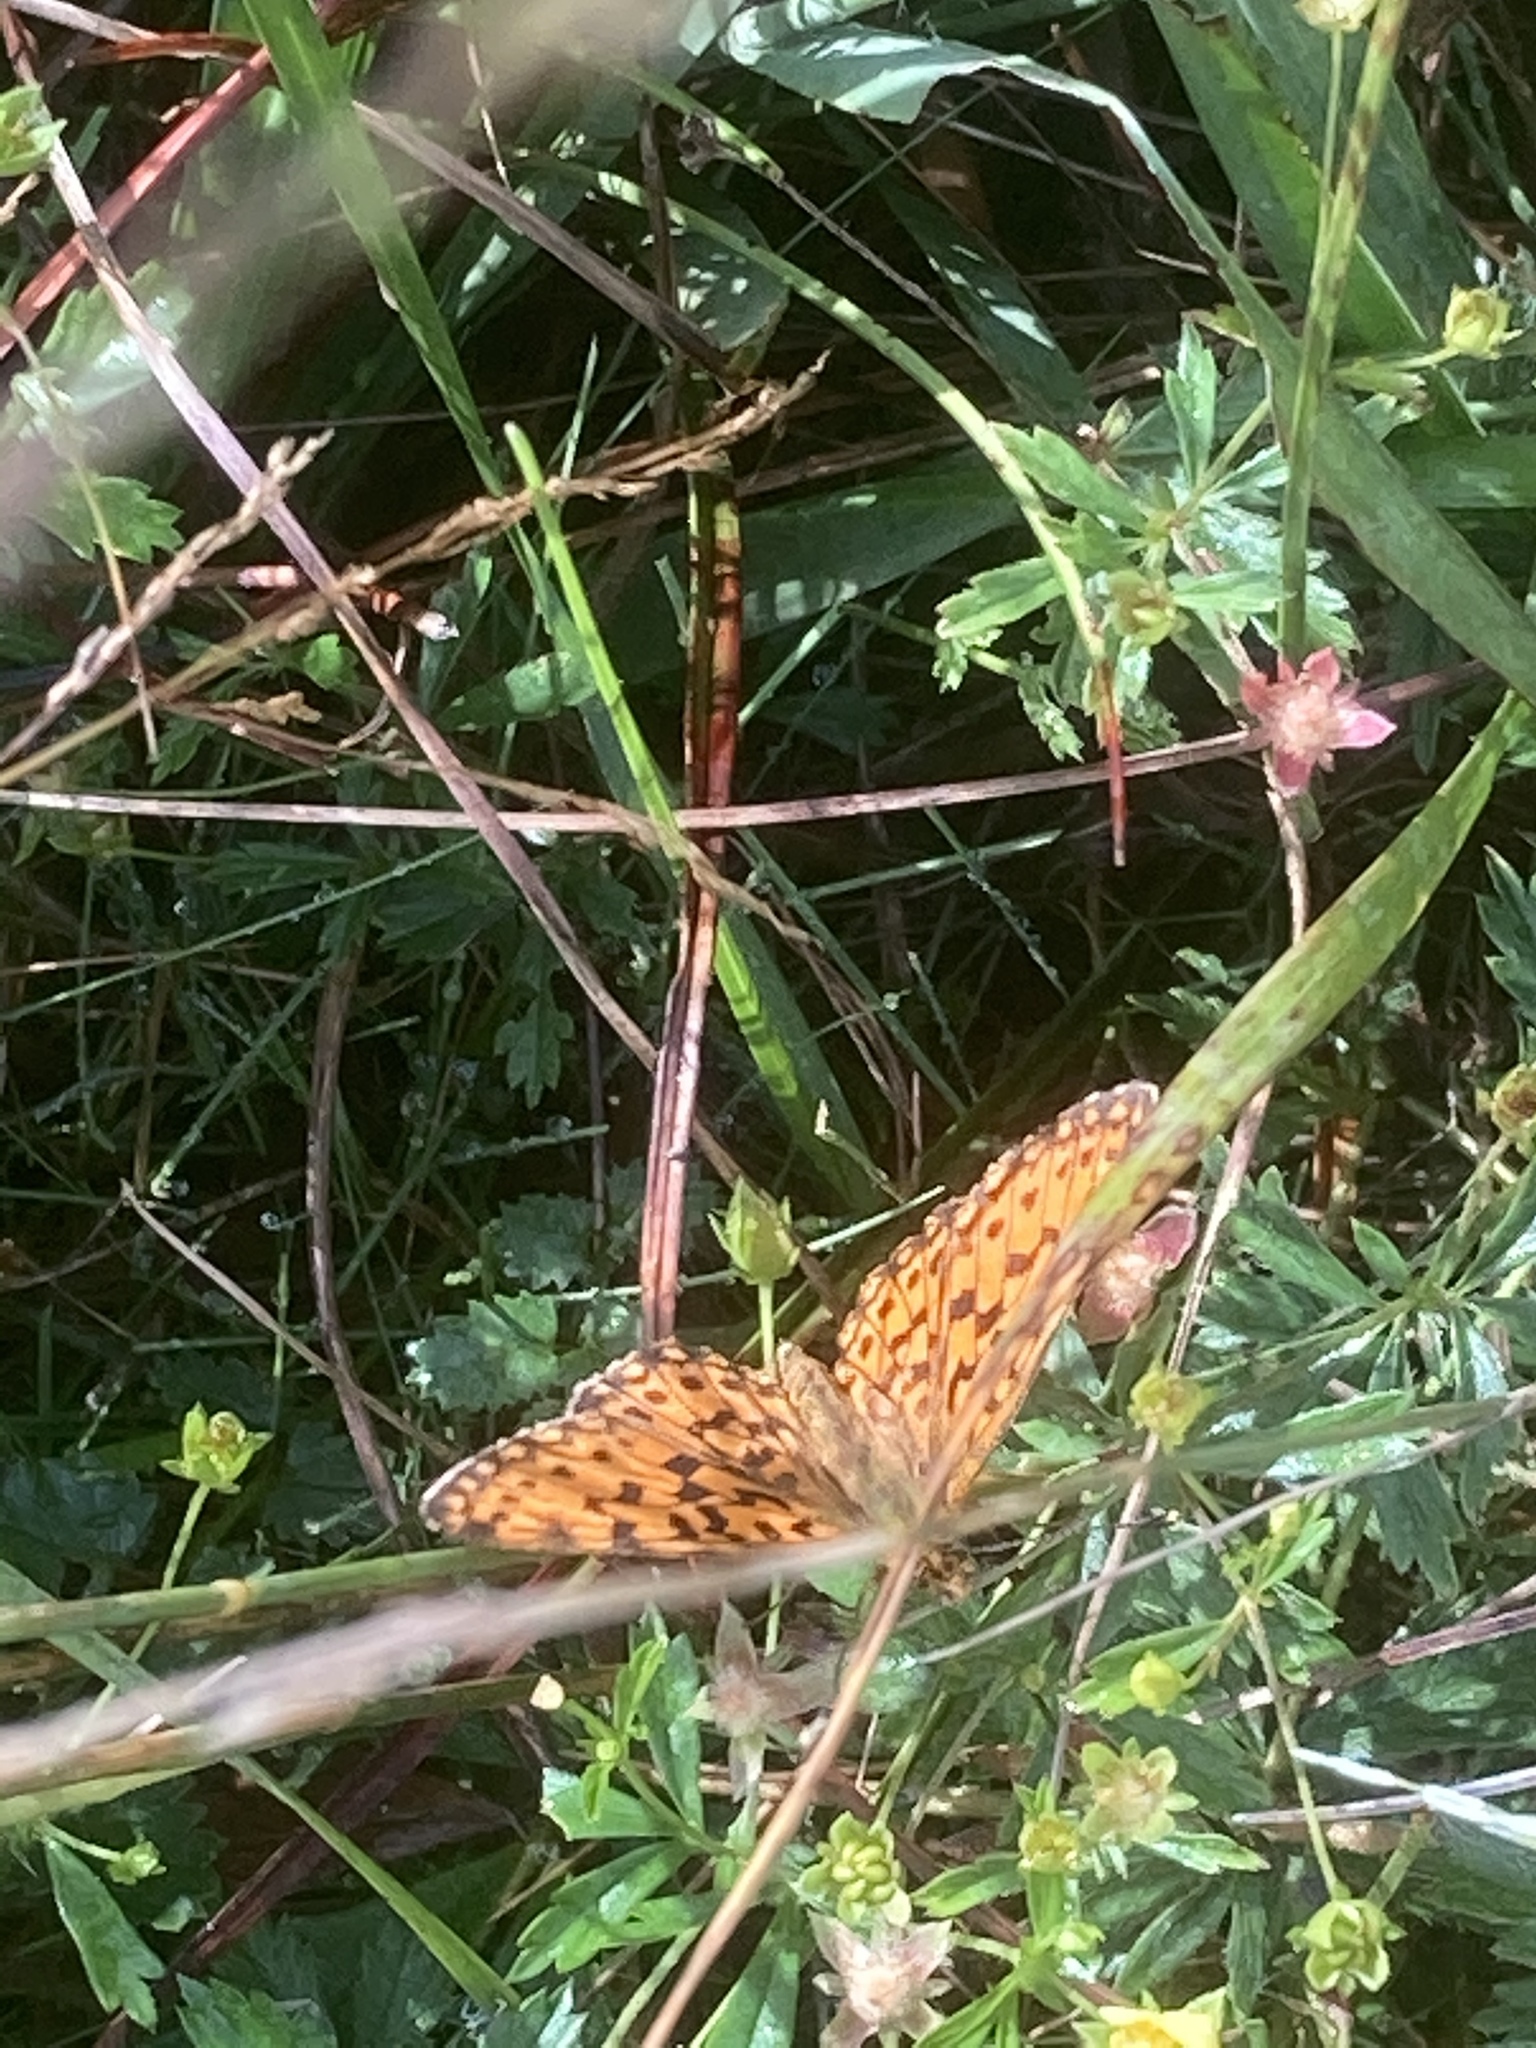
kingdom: Animalia
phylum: Arthropoda
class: Insecta
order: Lepidoptera
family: Nymphalidae
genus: Boloria
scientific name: Boloria selene
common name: Small pearl-bordered fritillary
